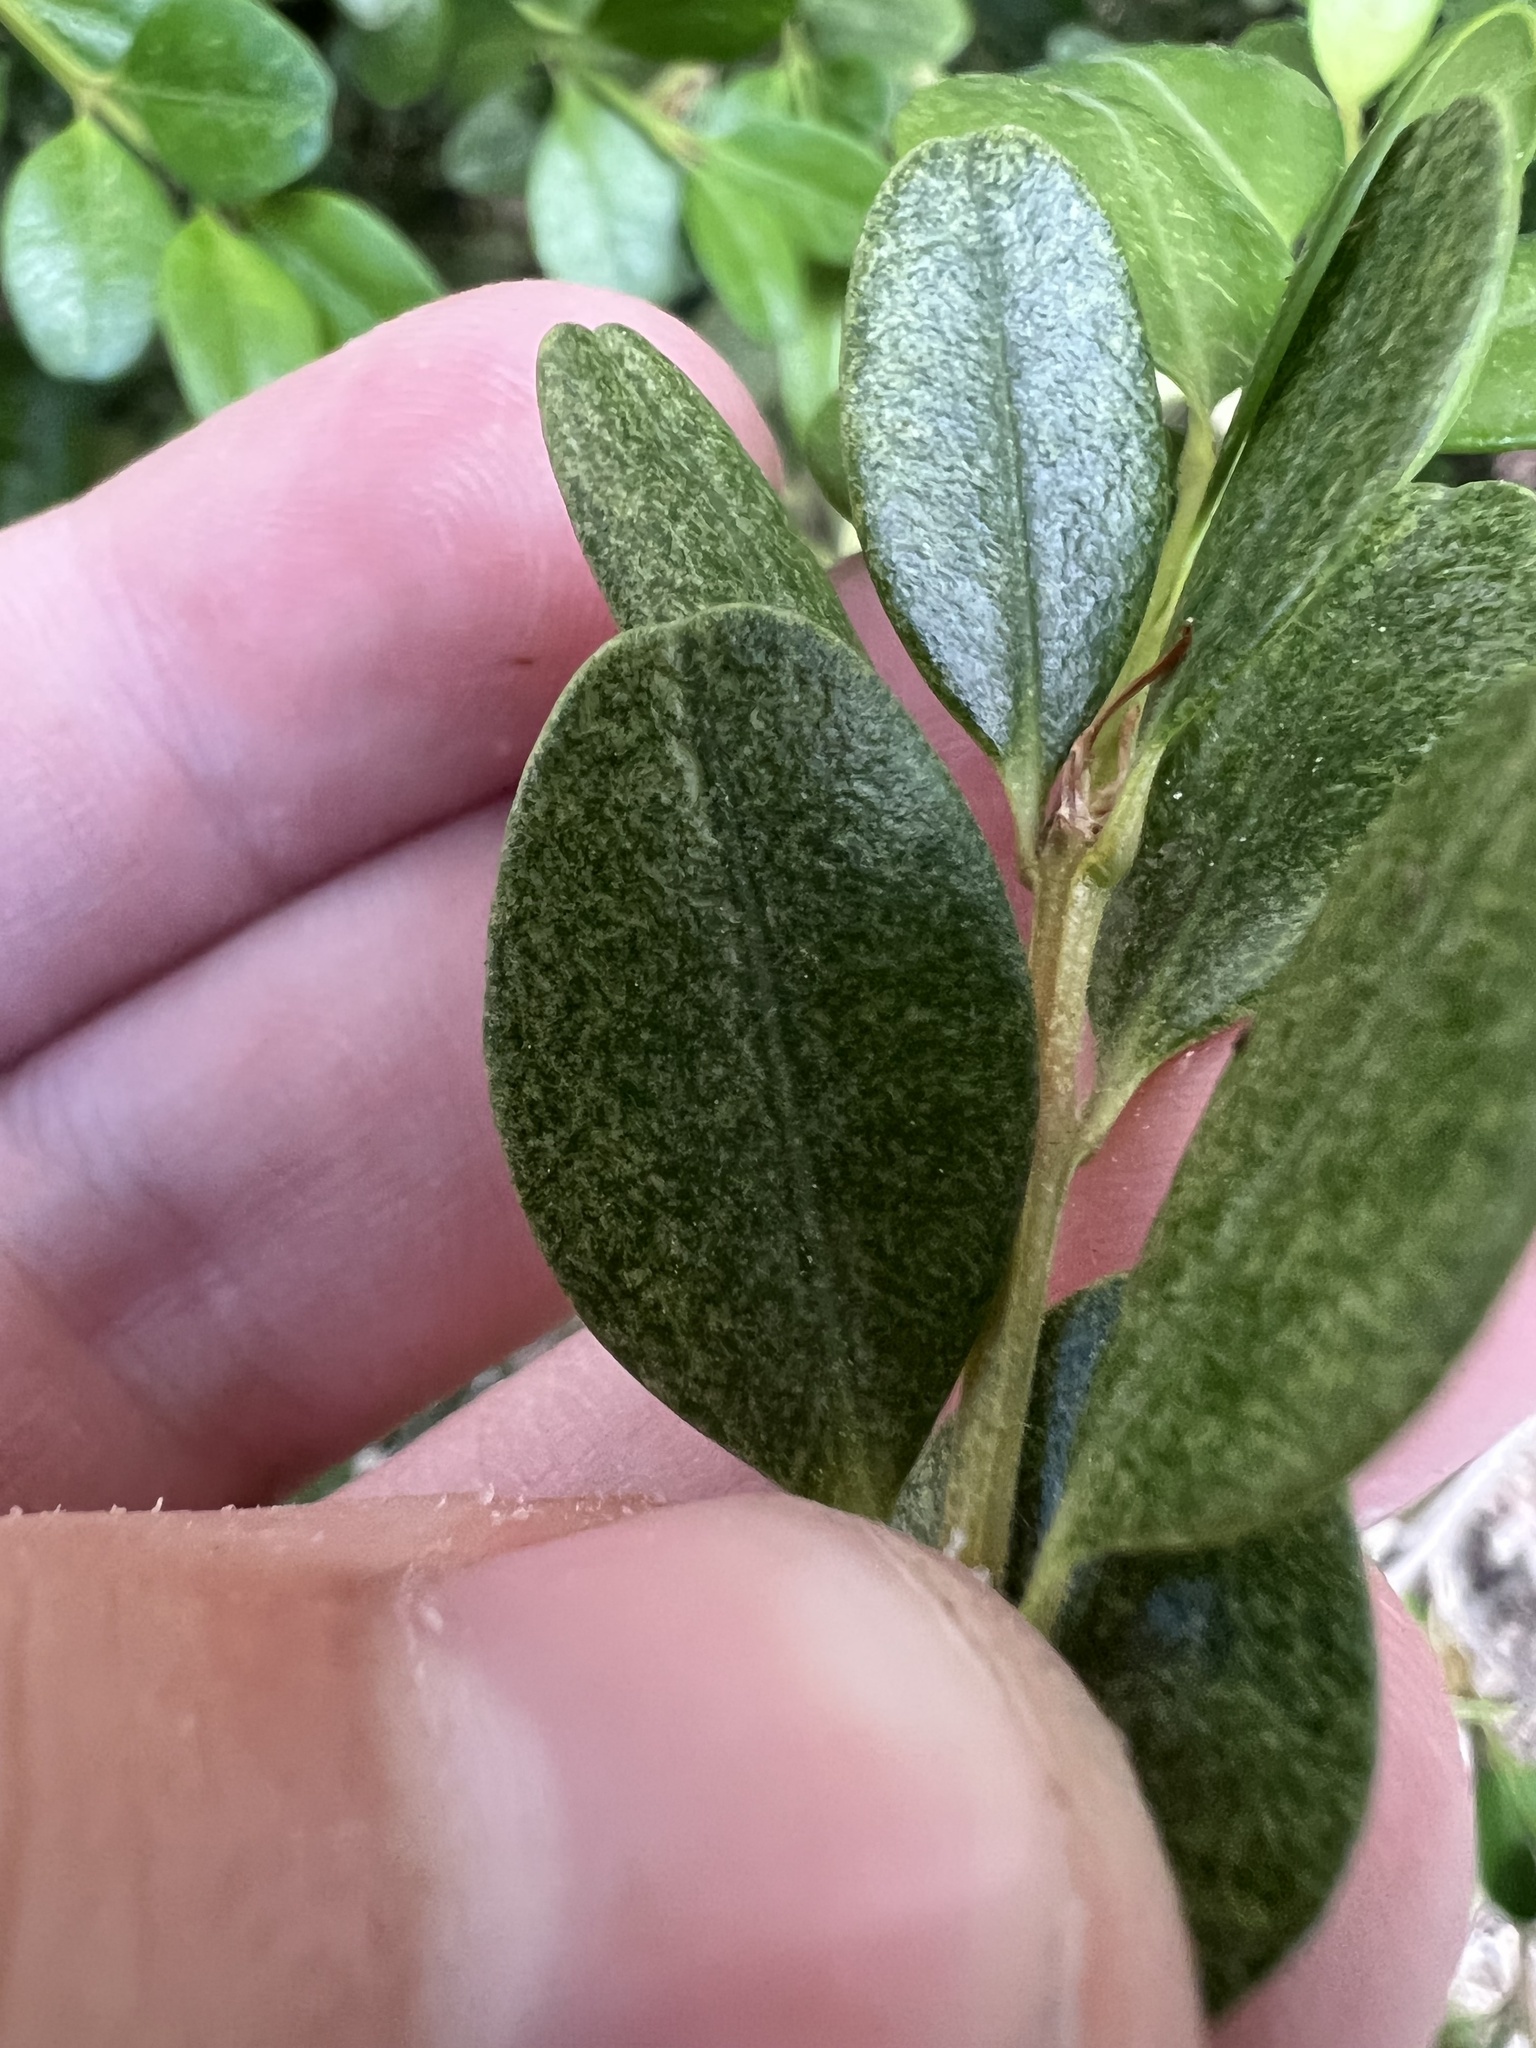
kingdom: Animalia
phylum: Arthropoda
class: Arachnida
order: Trombidiformes
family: Tetranychidae
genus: Eurytetranychus
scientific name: Eurytetranychus buxi
